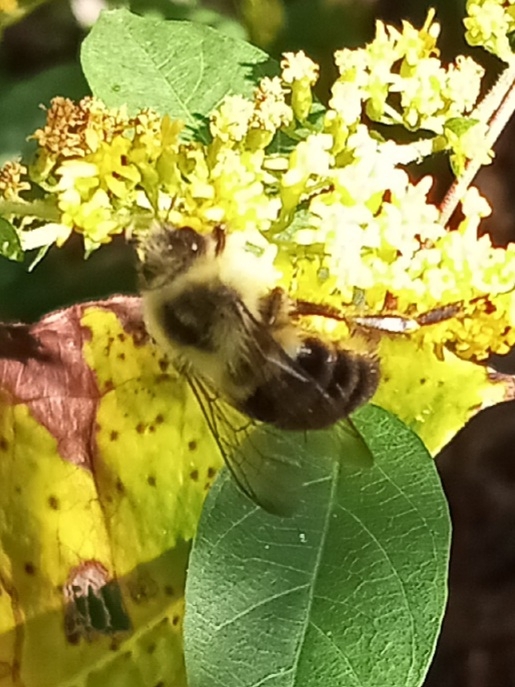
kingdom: Animalia
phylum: Arthropoda
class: Insecta
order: Hymenoptera
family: Apidae
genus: Bombus
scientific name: Bombus impatiens
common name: Common eastern bumble bee
